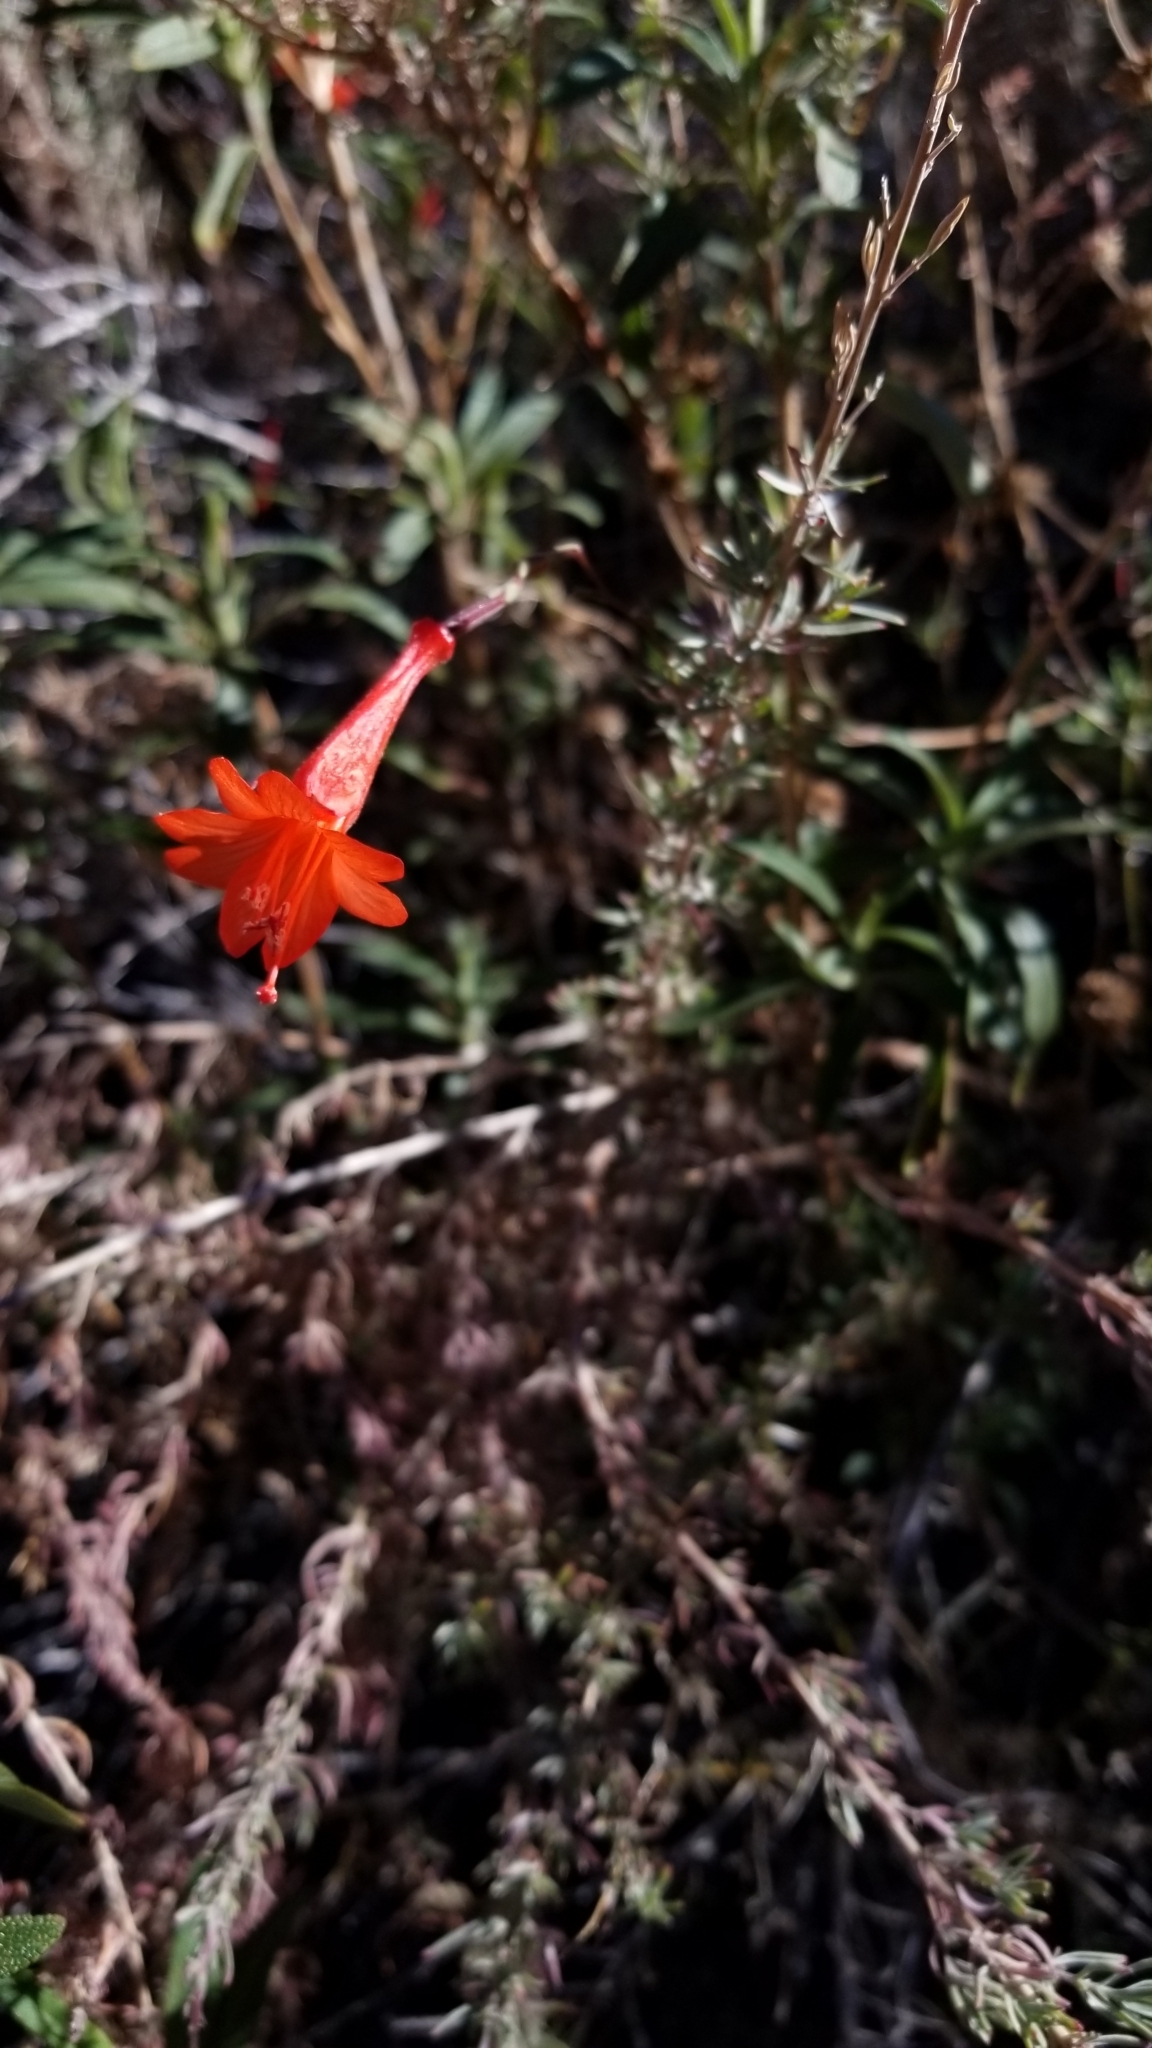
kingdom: Plantae
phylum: Tracheophyta
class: Magnoliopsida
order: Myrtales
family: Onagraceae
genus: Epilobium
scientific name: Epilobium canum
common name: California-fuchsia
